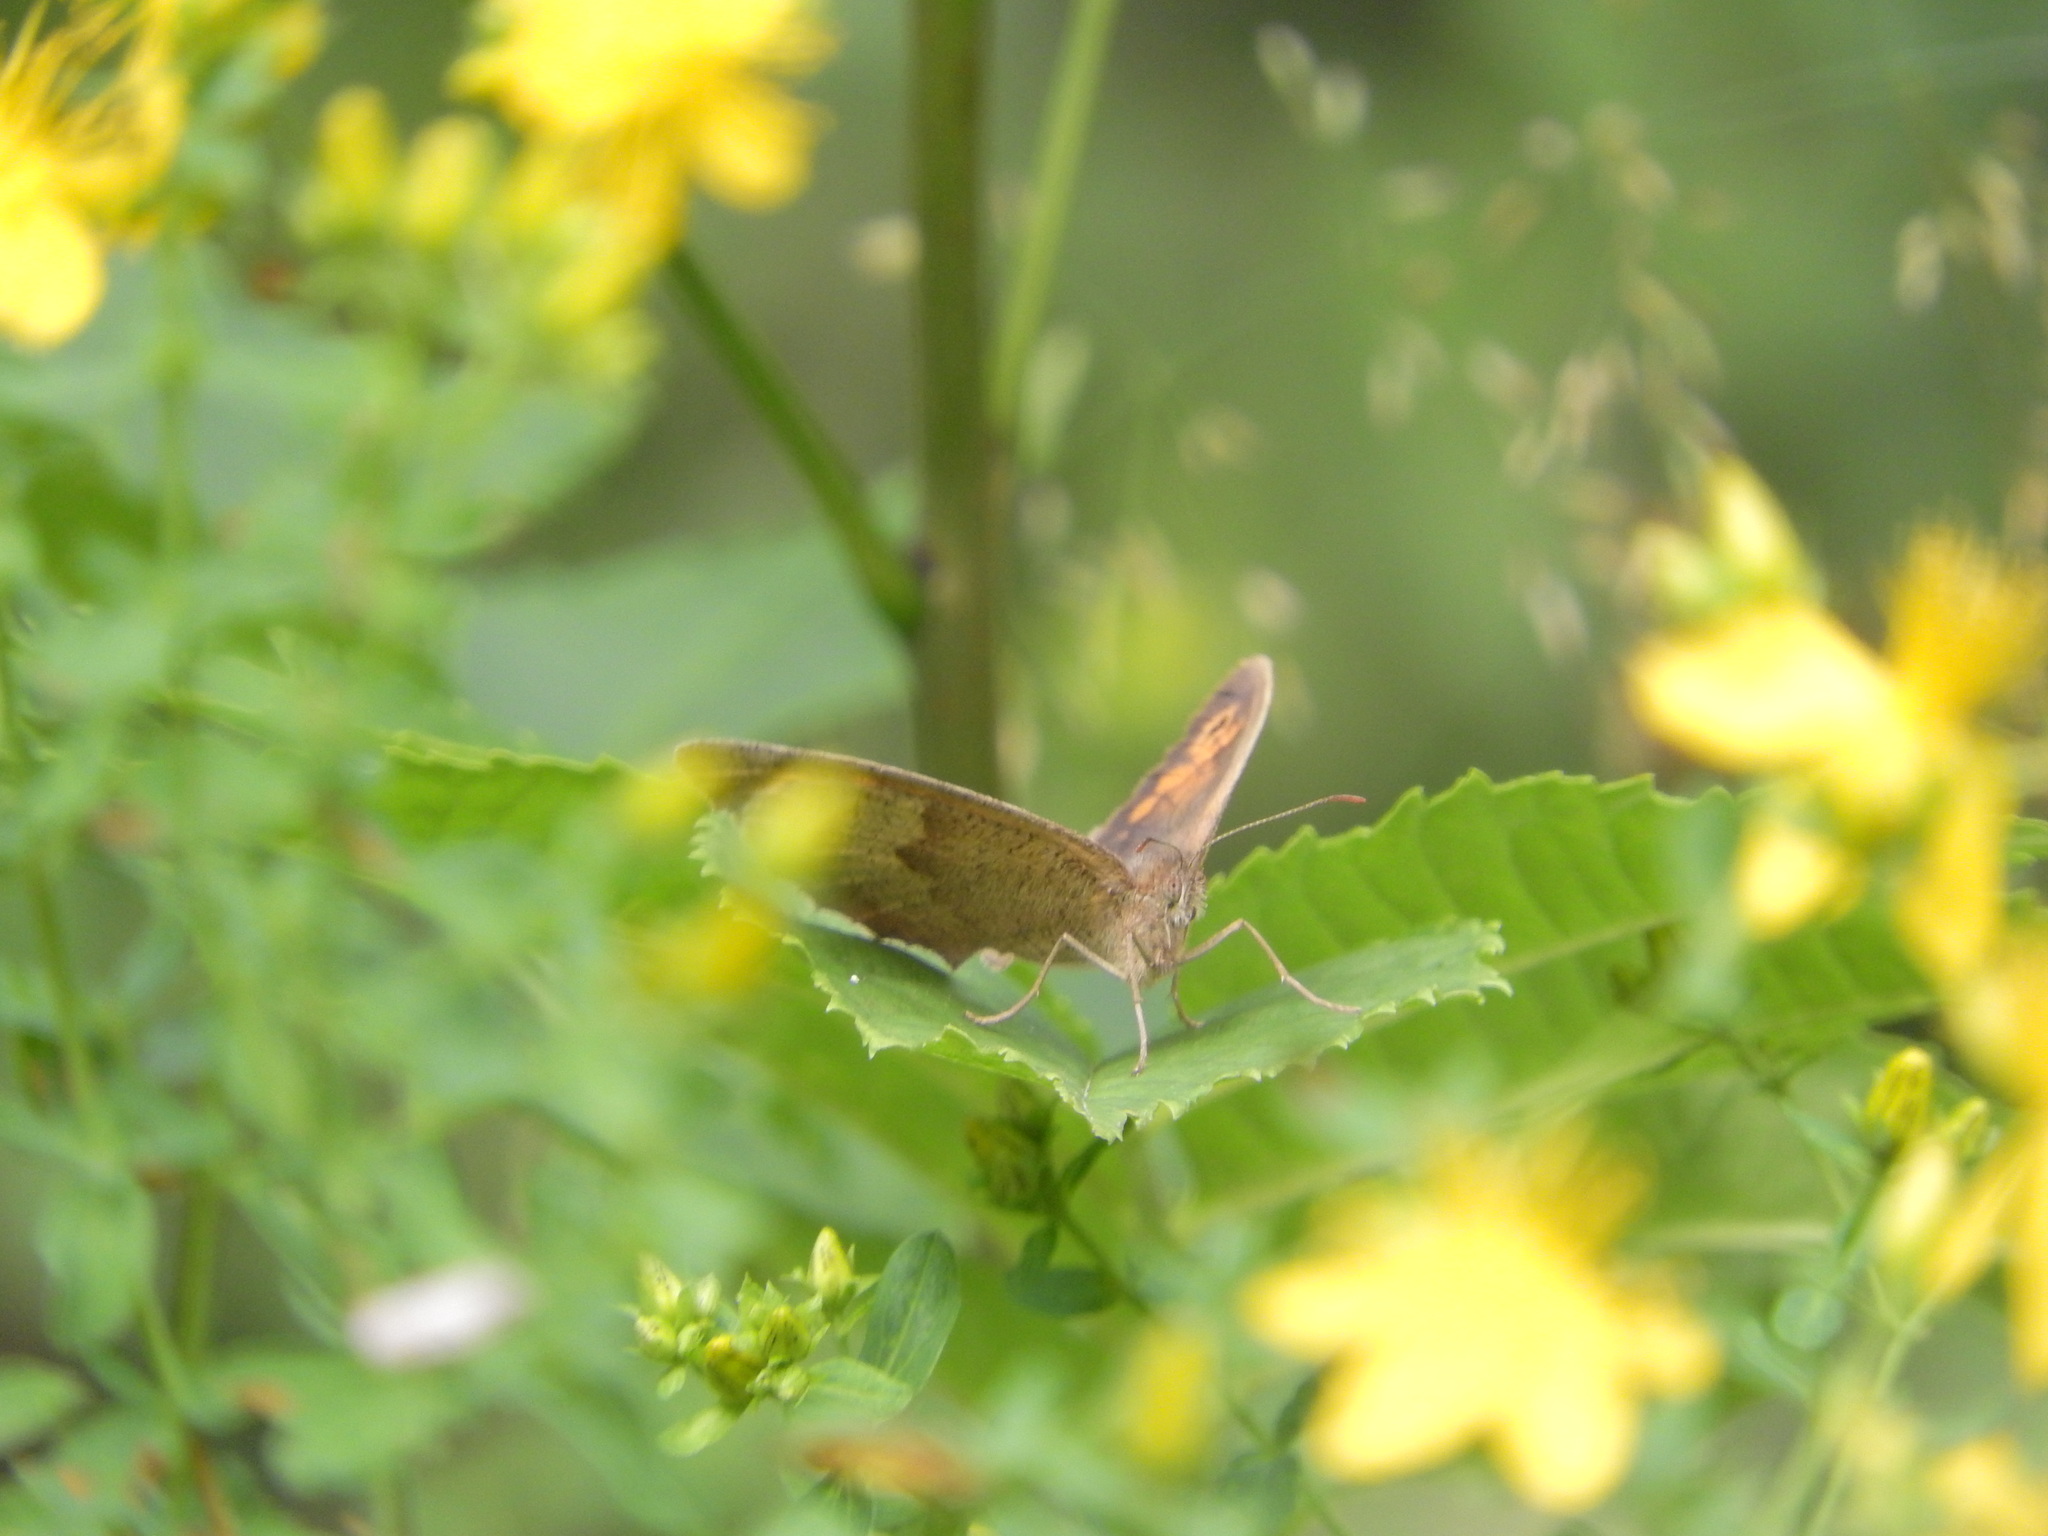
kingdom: Animalia
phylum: Arthropoda
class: Insecta
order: Lepidoptera
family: Nymphalidae
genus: Maniola
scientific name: Maniola jurtina
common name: Meadow brown
